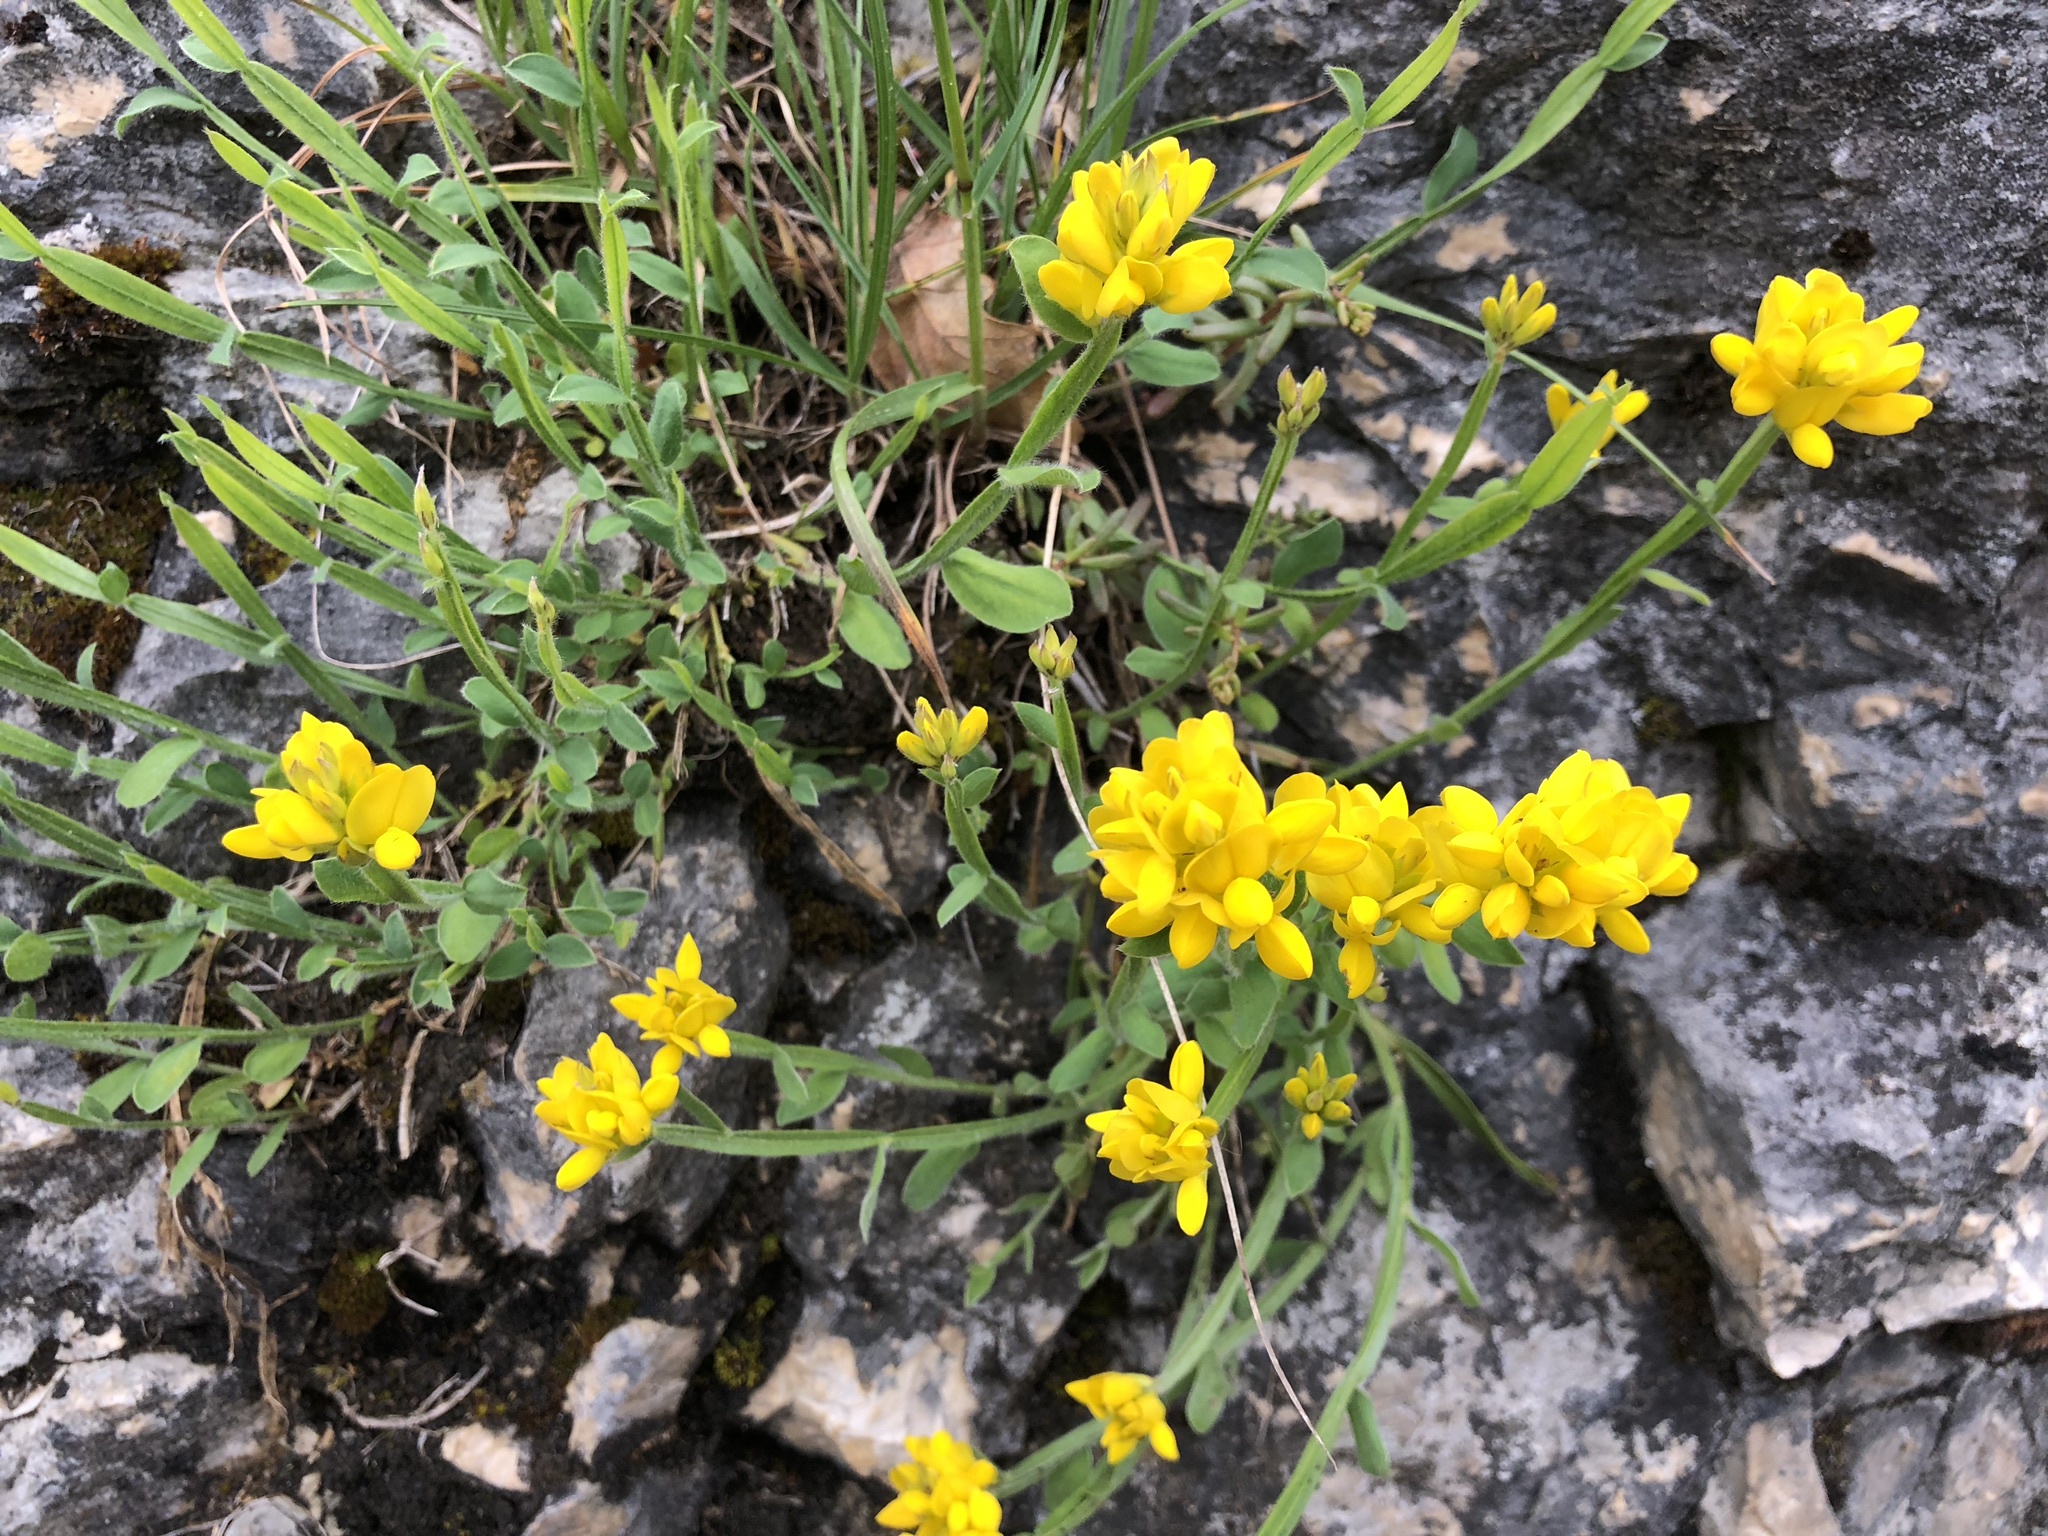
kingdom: Plantae
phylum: Tracheophyta
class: Magnoliopsida
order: Fabales
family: Fabaceae
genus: Genista
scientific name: Genista sagittalis
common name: Winged greenweed
